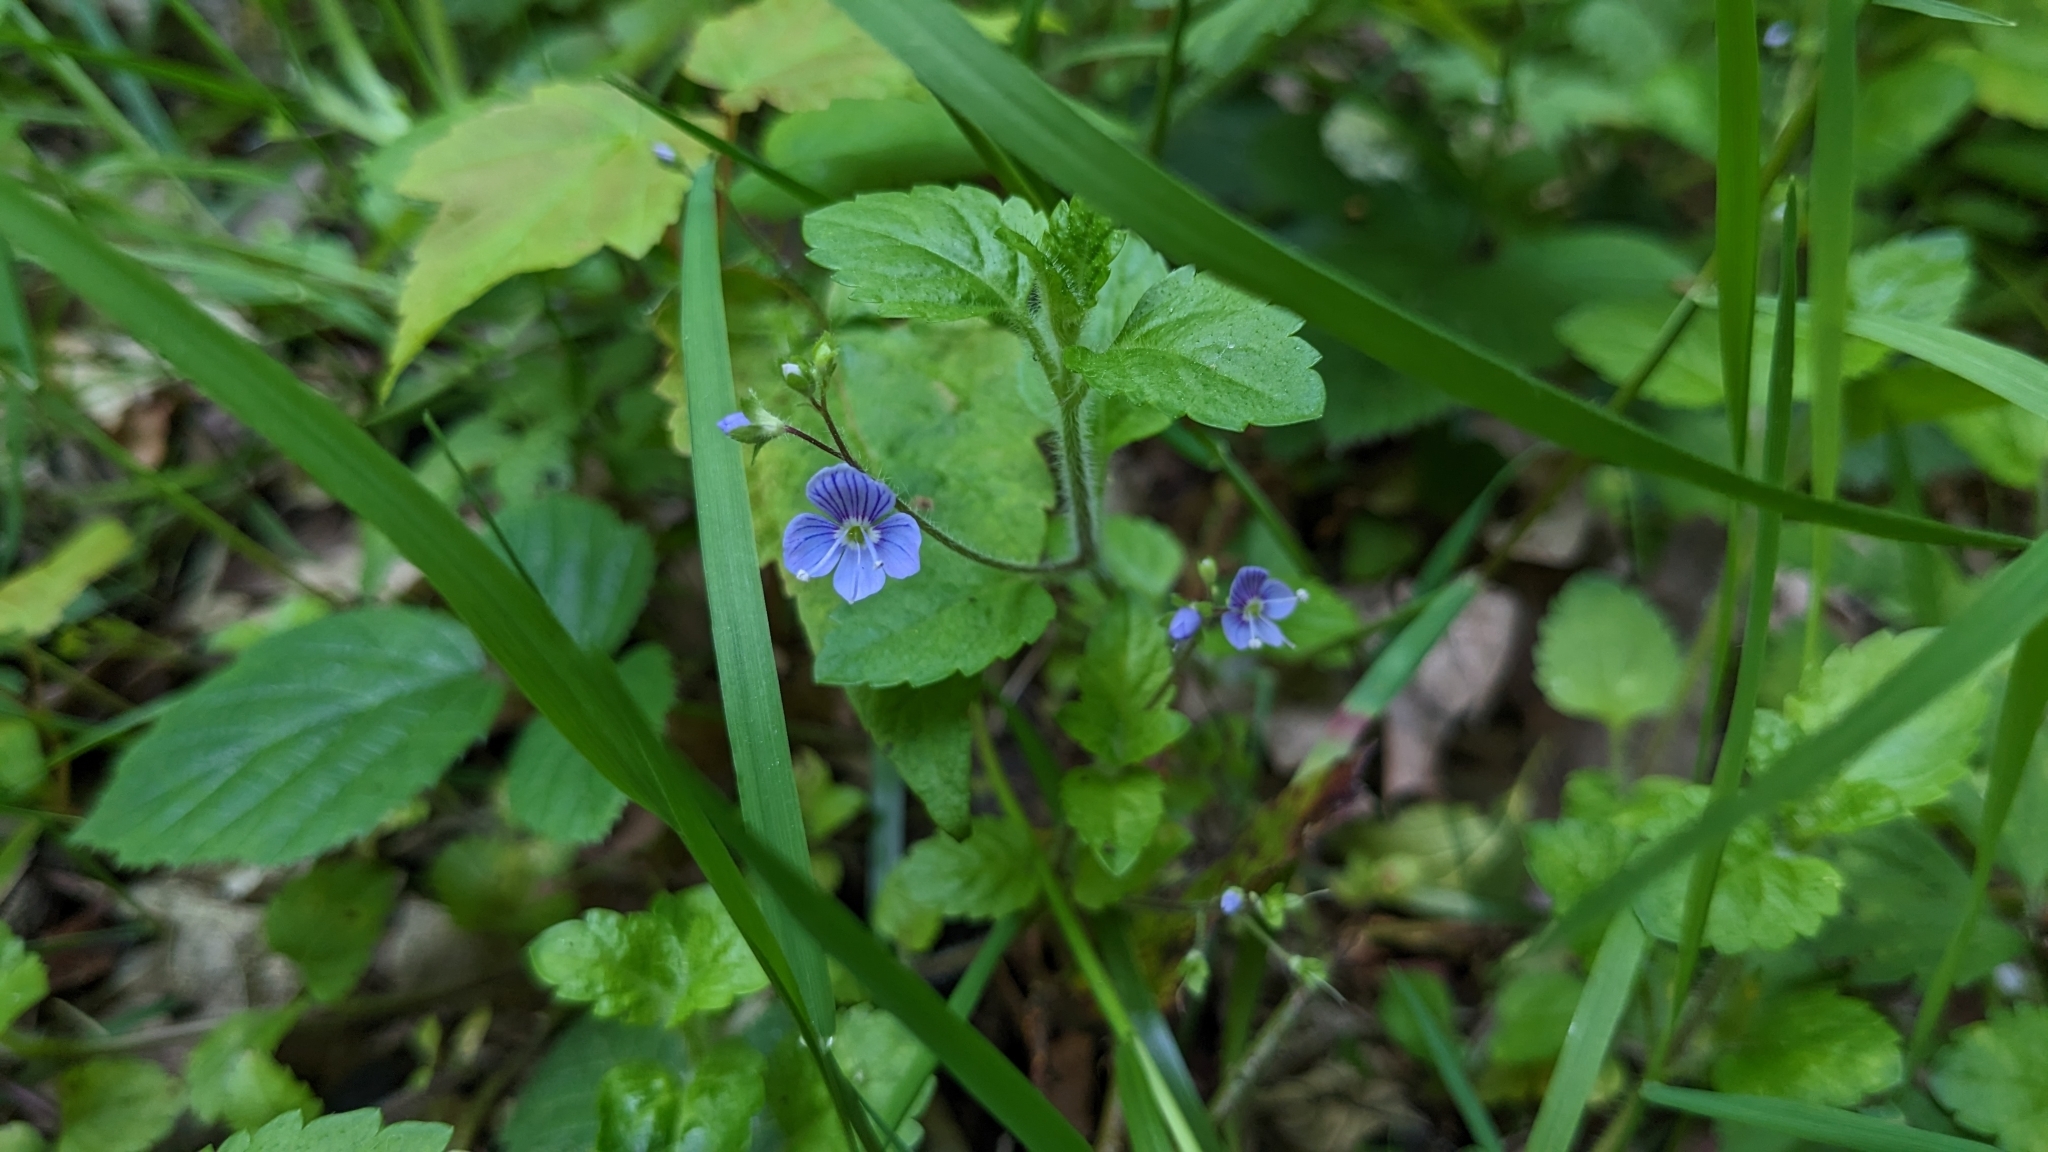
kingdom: Plantae
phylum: Tracheophyta
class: Magnoliopsida
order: Lamiales
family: Plantaginaceae
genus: Veronica
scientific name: Veronica chamaedrys
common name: Germander speedwell
